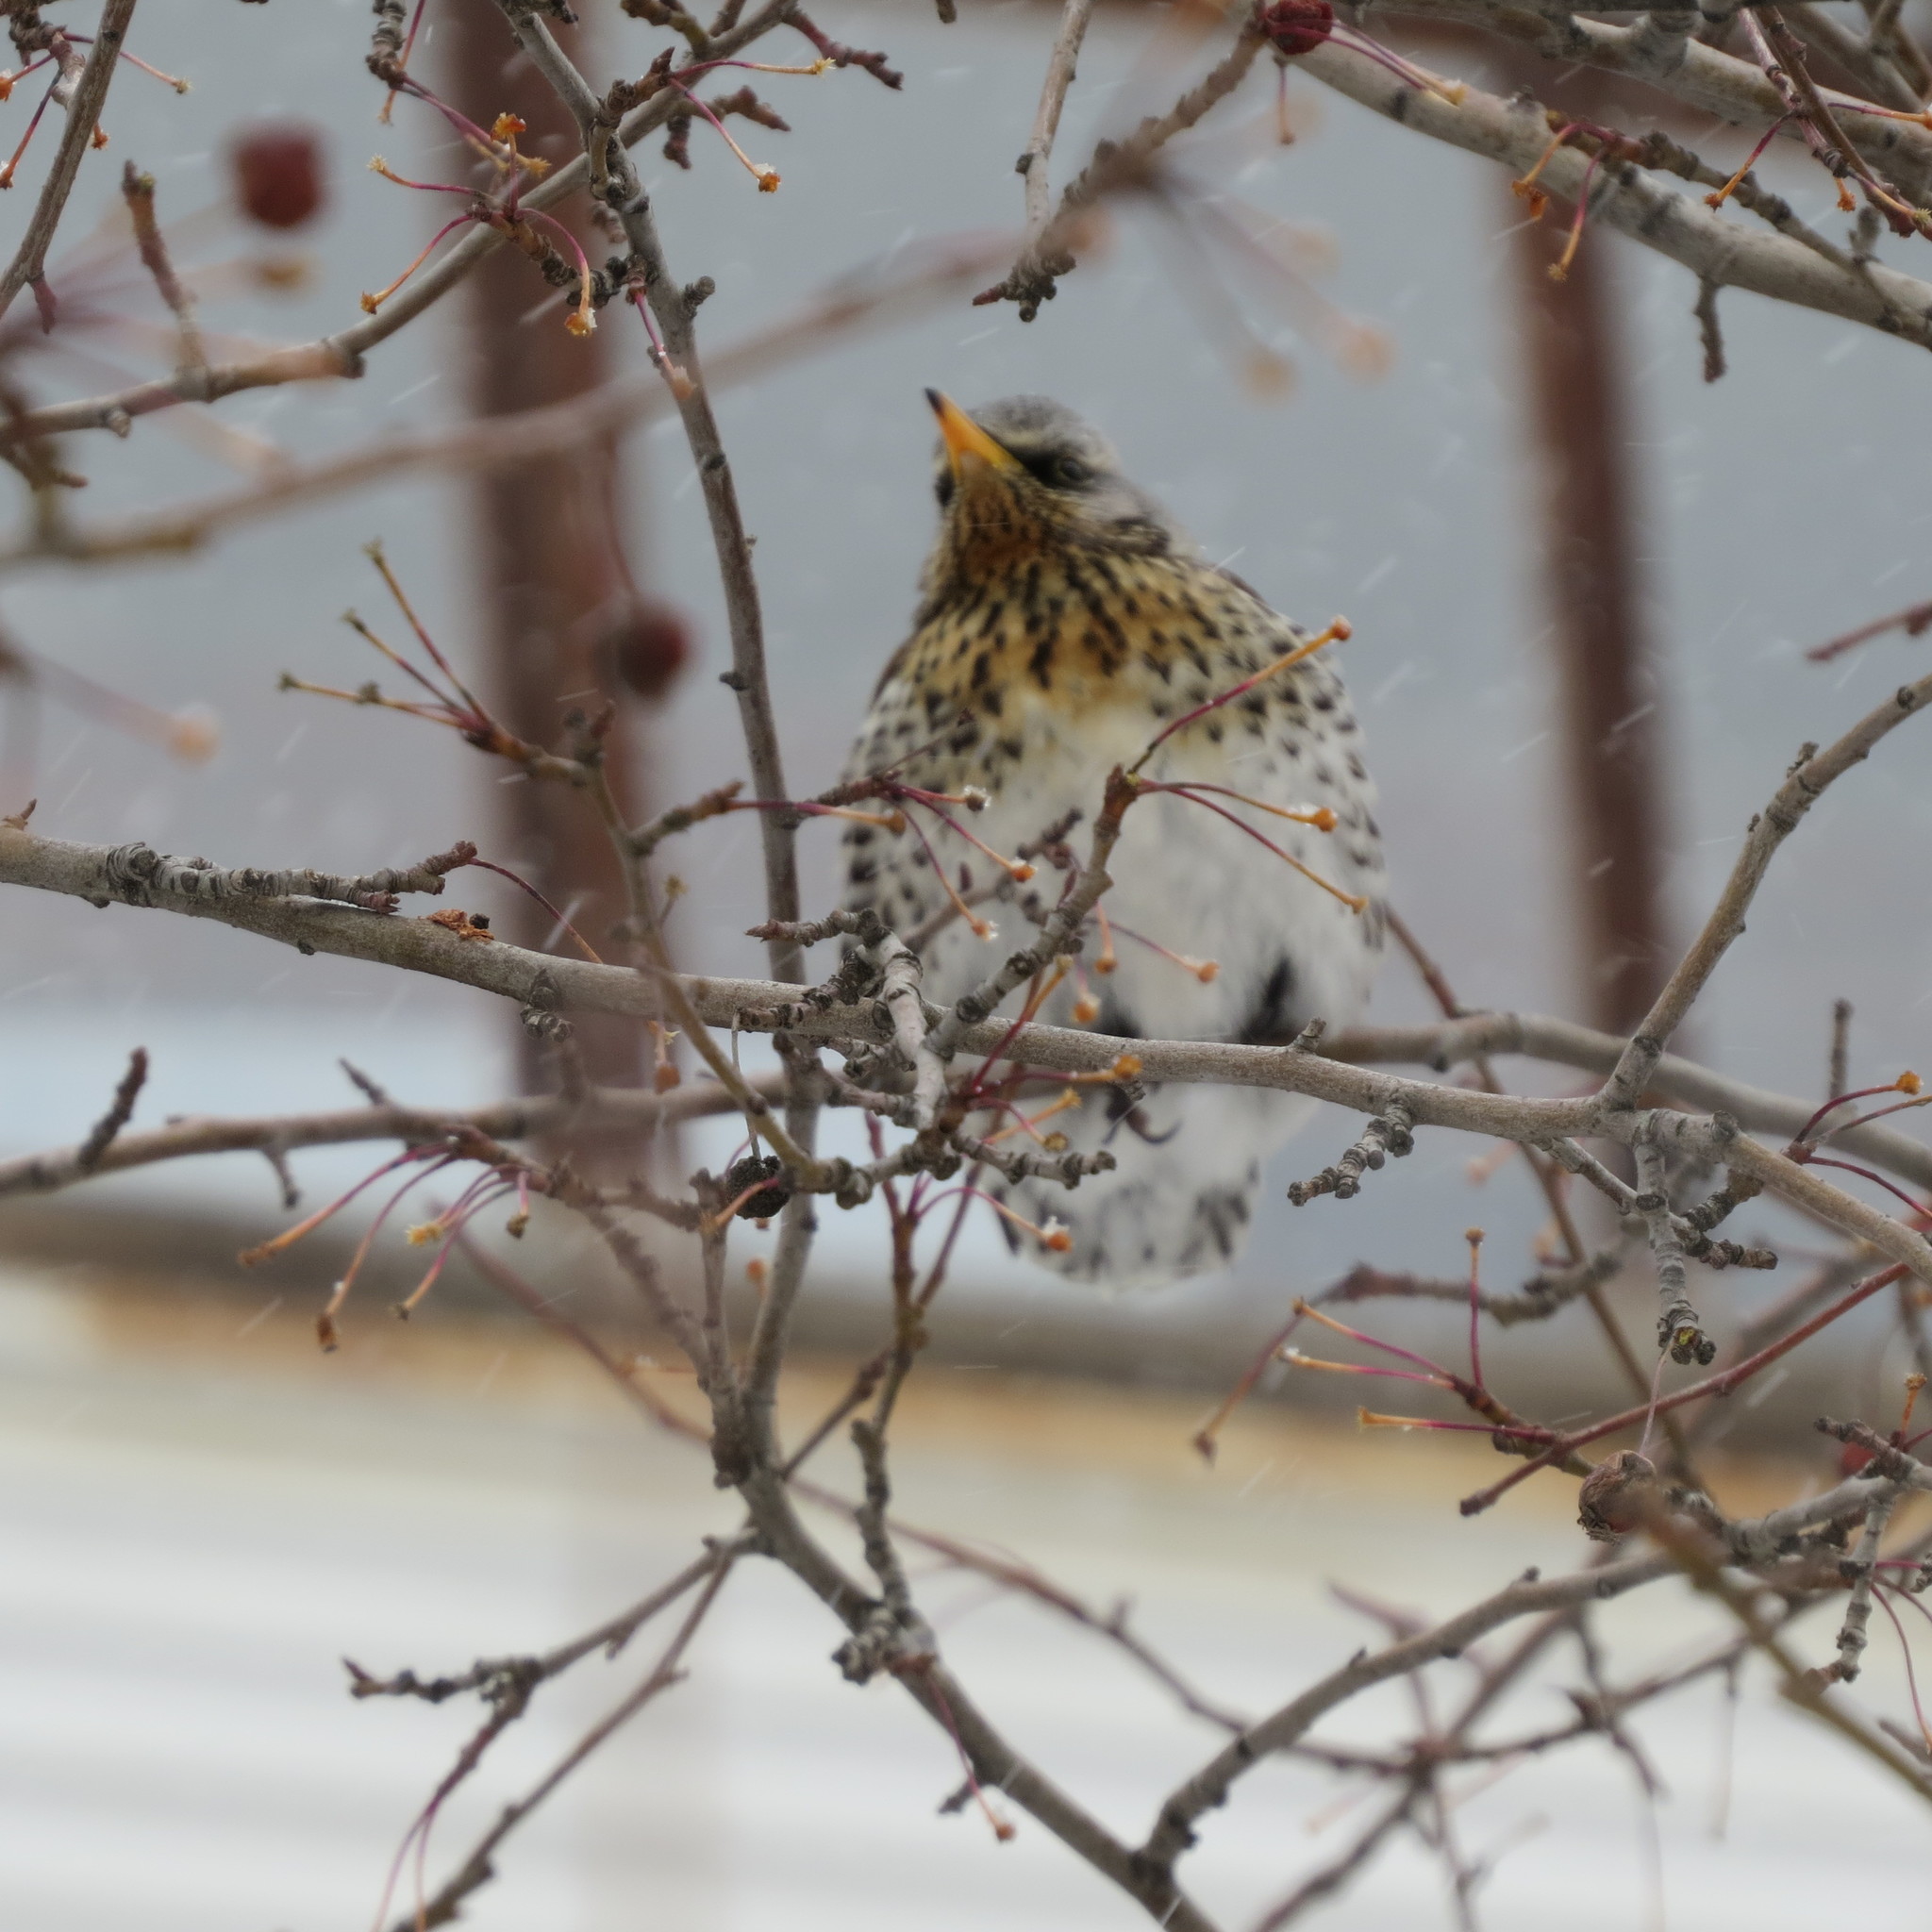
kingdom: Animalia
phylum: Chordata
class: Aves
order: Passeriformes
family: Turdidae
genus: Turdus
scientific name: Turdus pilaris
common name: Fieldfare
